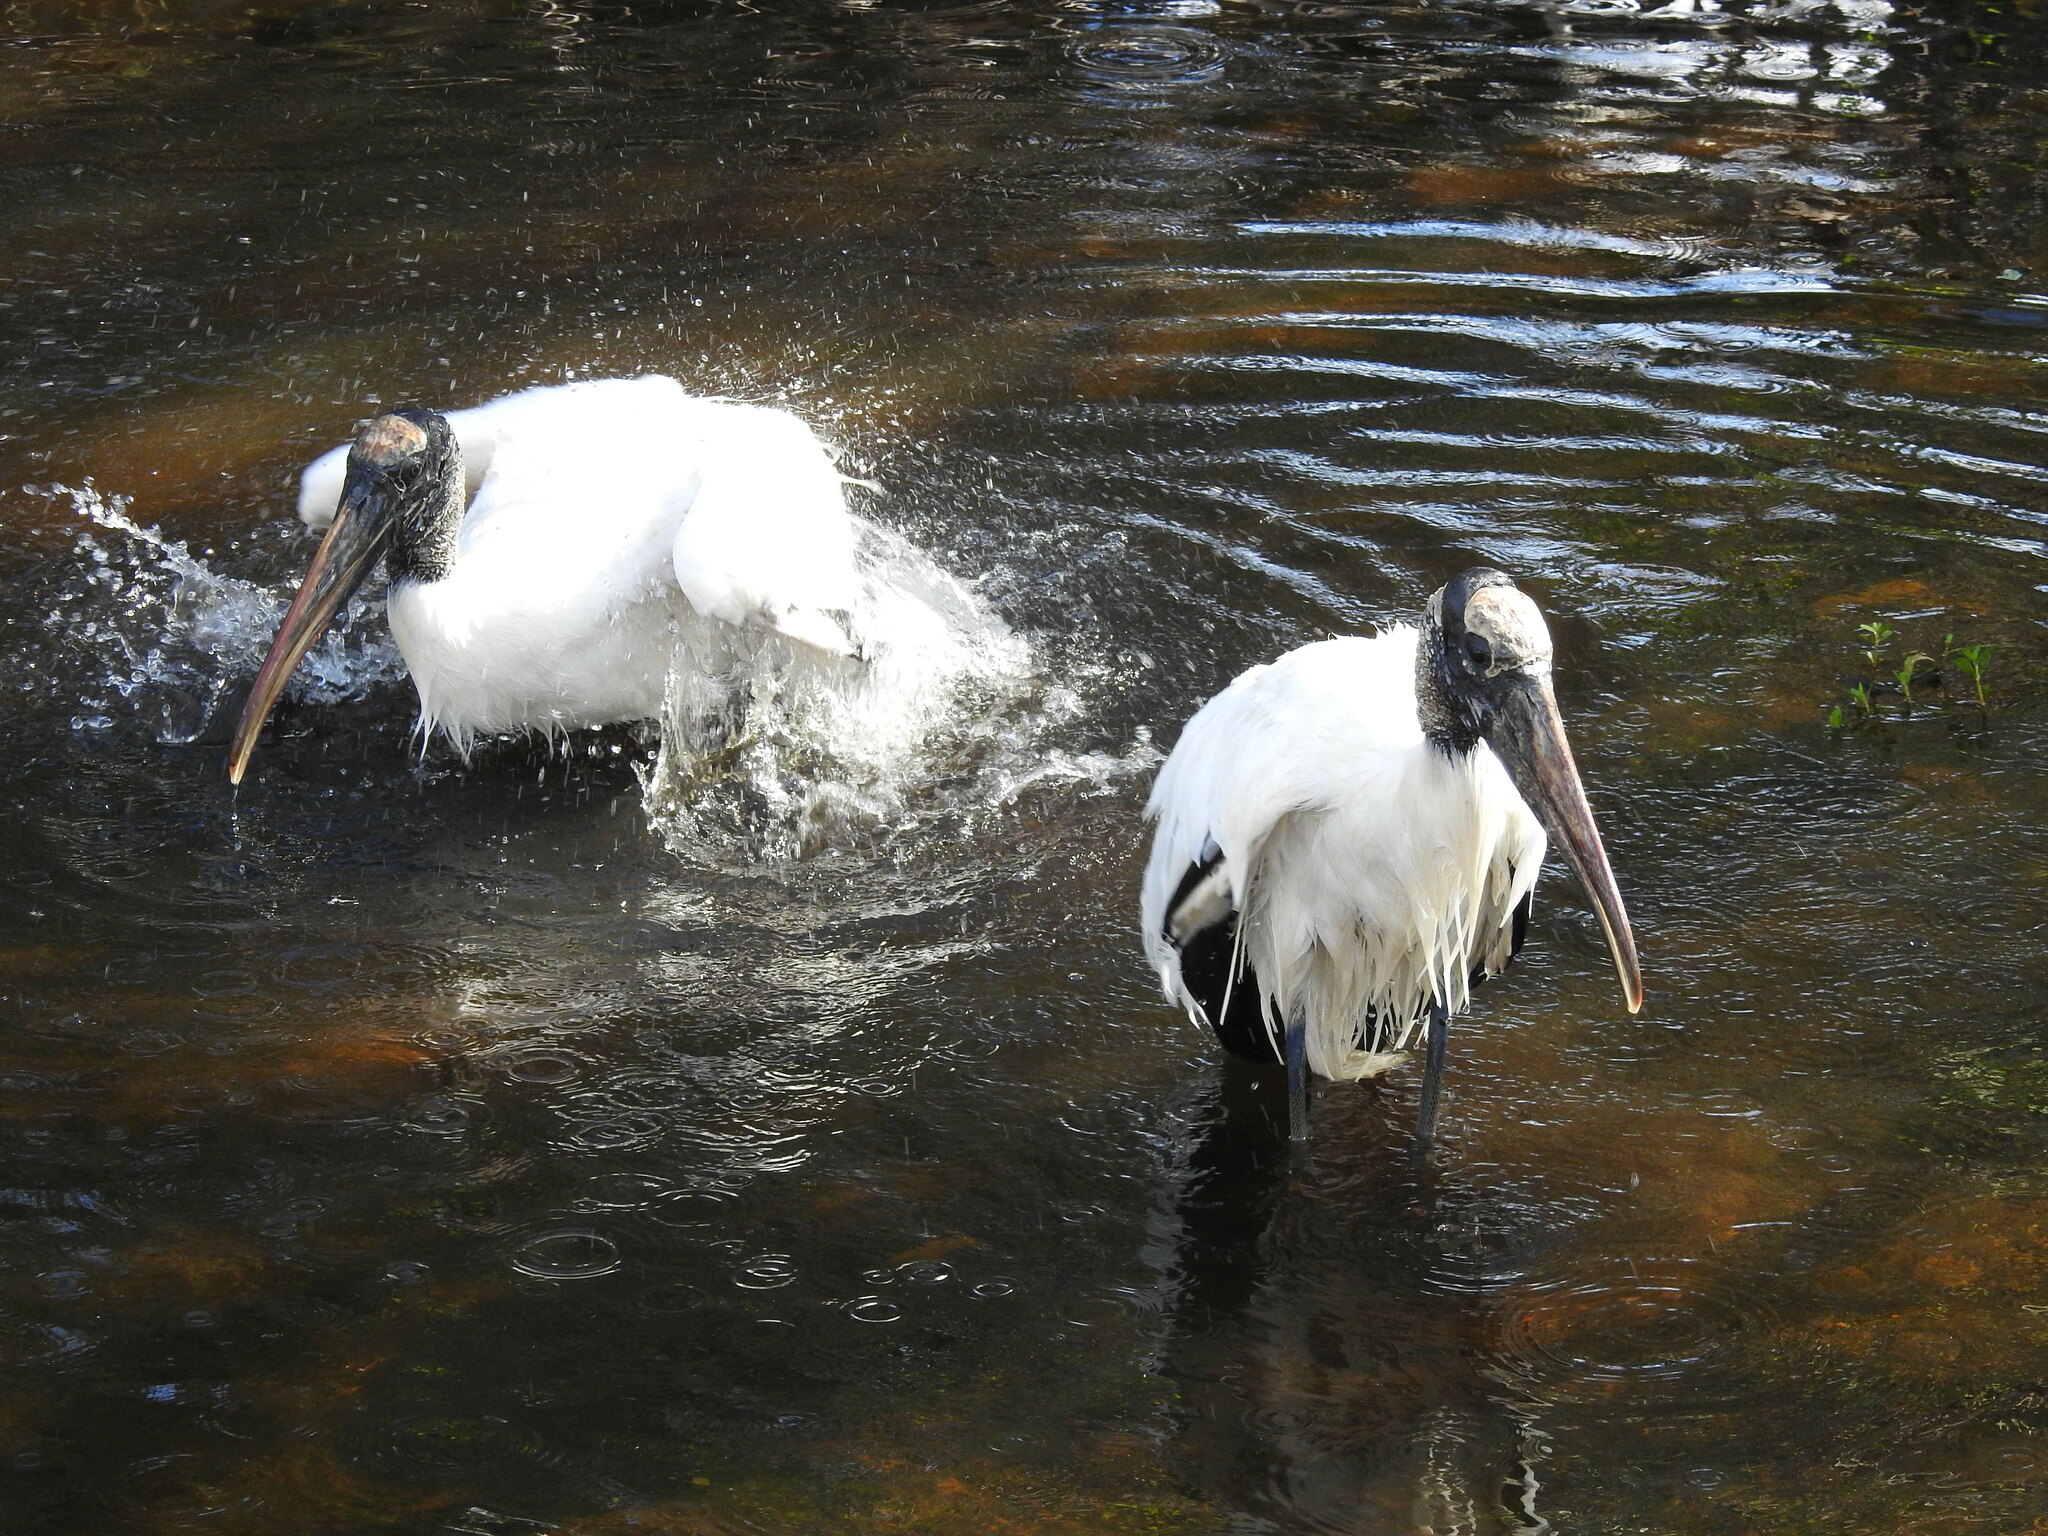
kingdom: Animalia
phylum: Chordata
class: Aves
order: Ciconiiformes
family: Ciconiidae
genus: Mycteria
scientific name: Mycteria americana
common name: Wood stork
